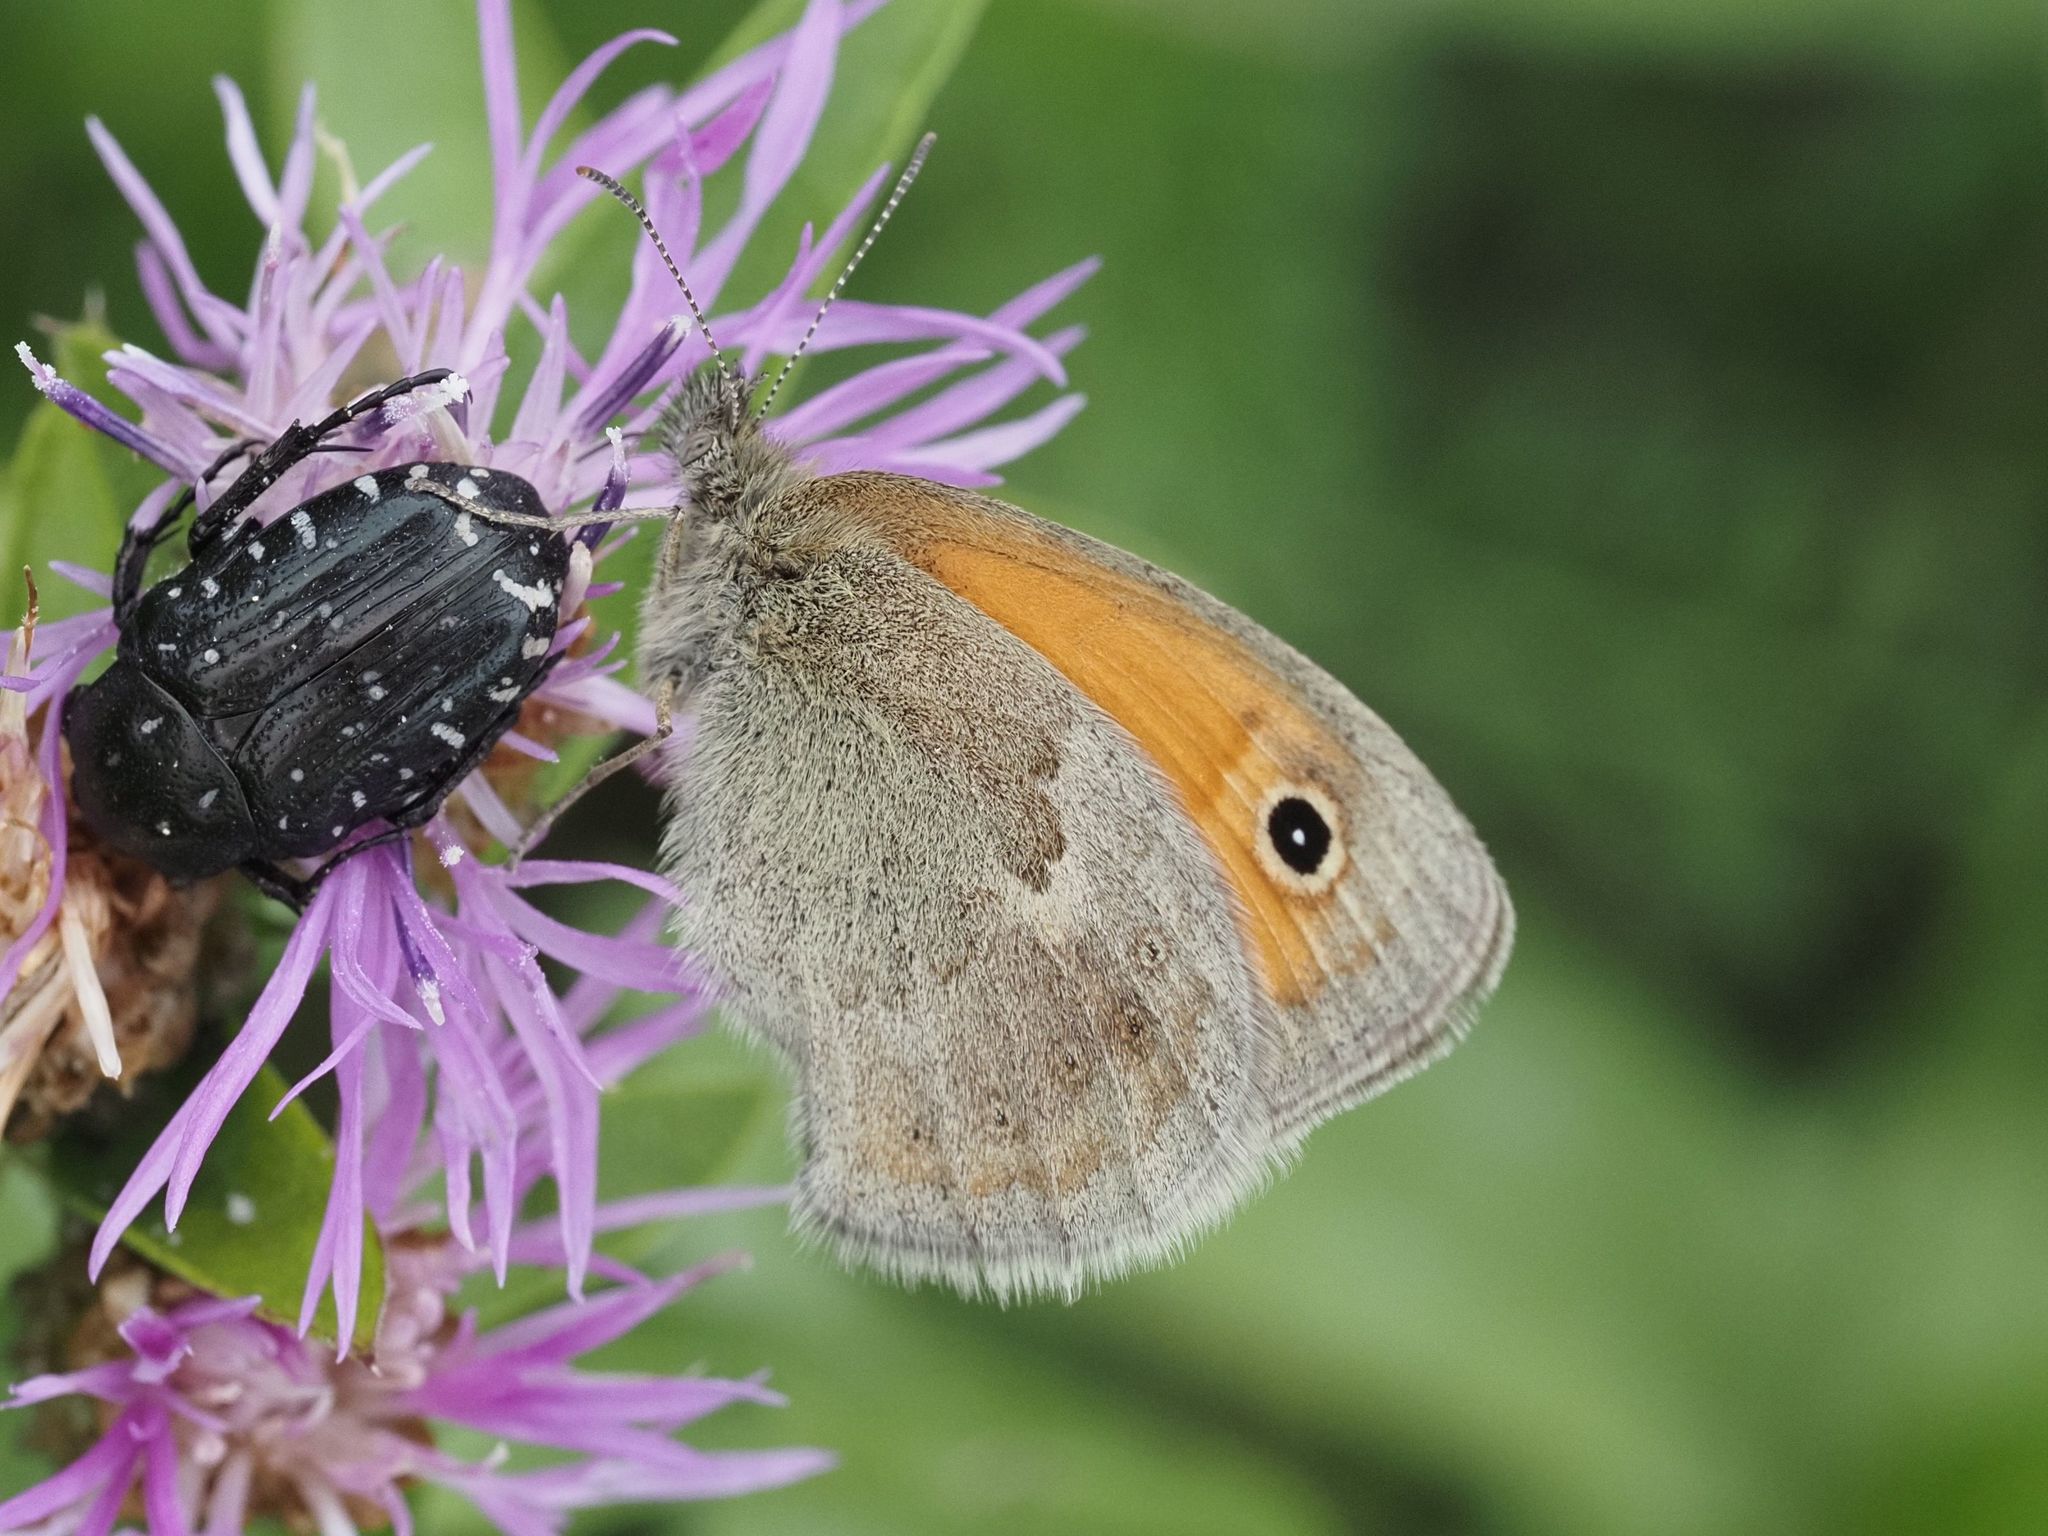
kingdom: Animalia
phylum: Arthropoda
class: Insecta
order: Lepidoptera
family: Nymphalidae
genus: Coenonympha
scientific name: Coenonympha pamphilus
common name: Small heath
